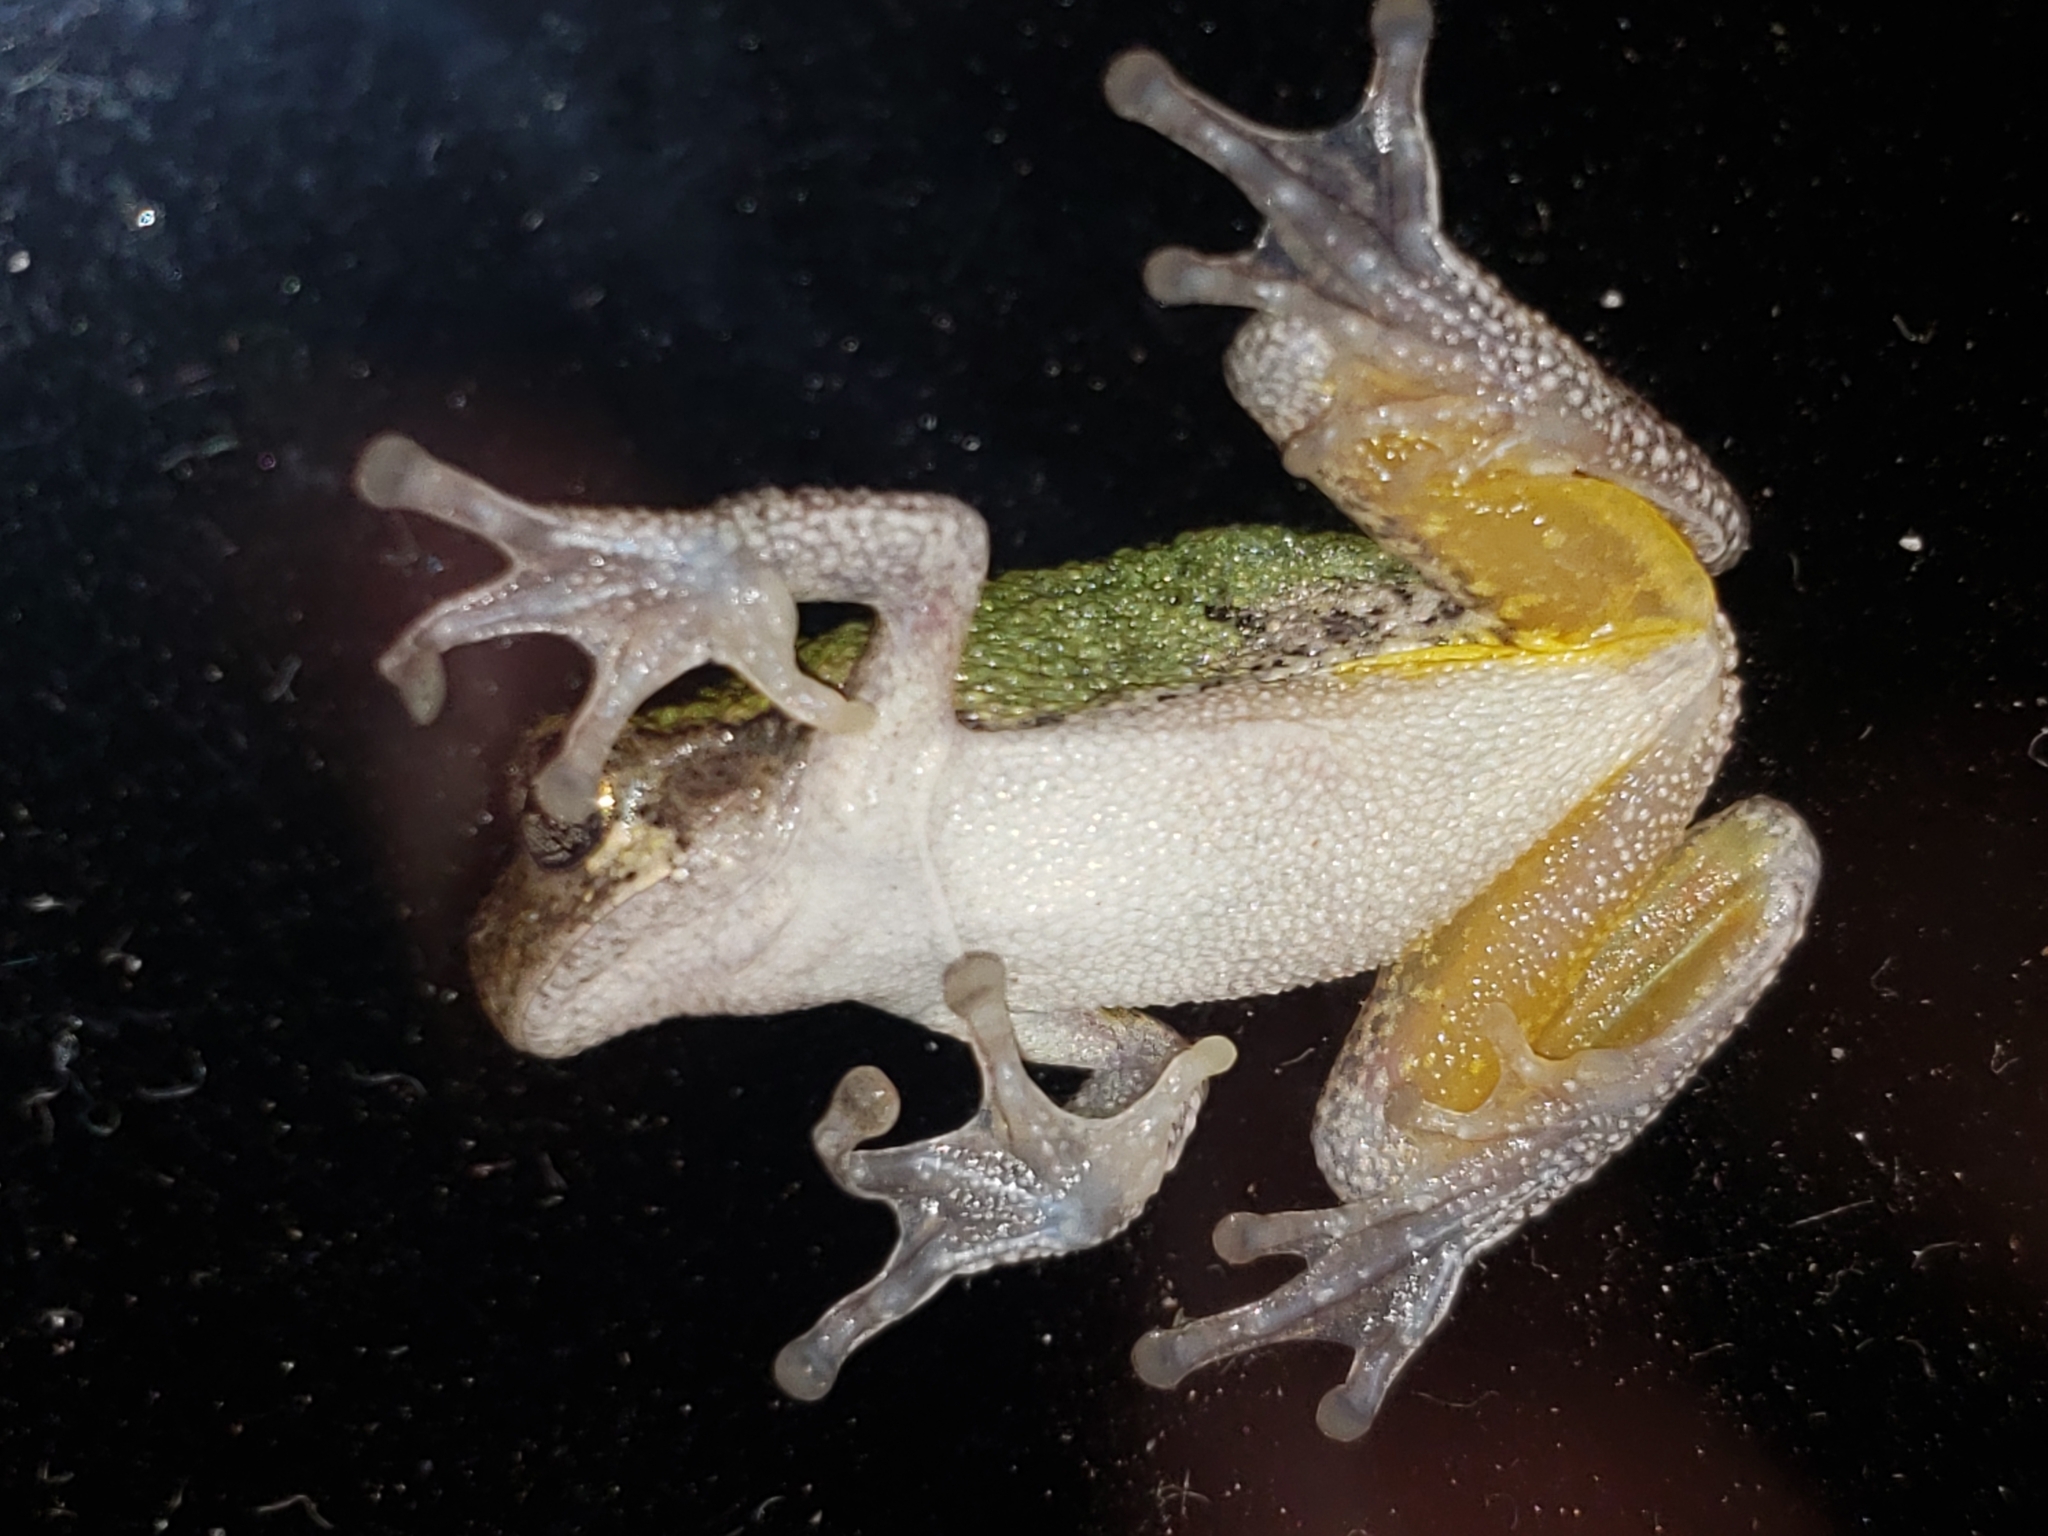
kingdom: Animalia
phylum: Chordata
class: Amphibia
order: Anura
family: Hylidae
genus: Hyla
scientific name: Hyla
